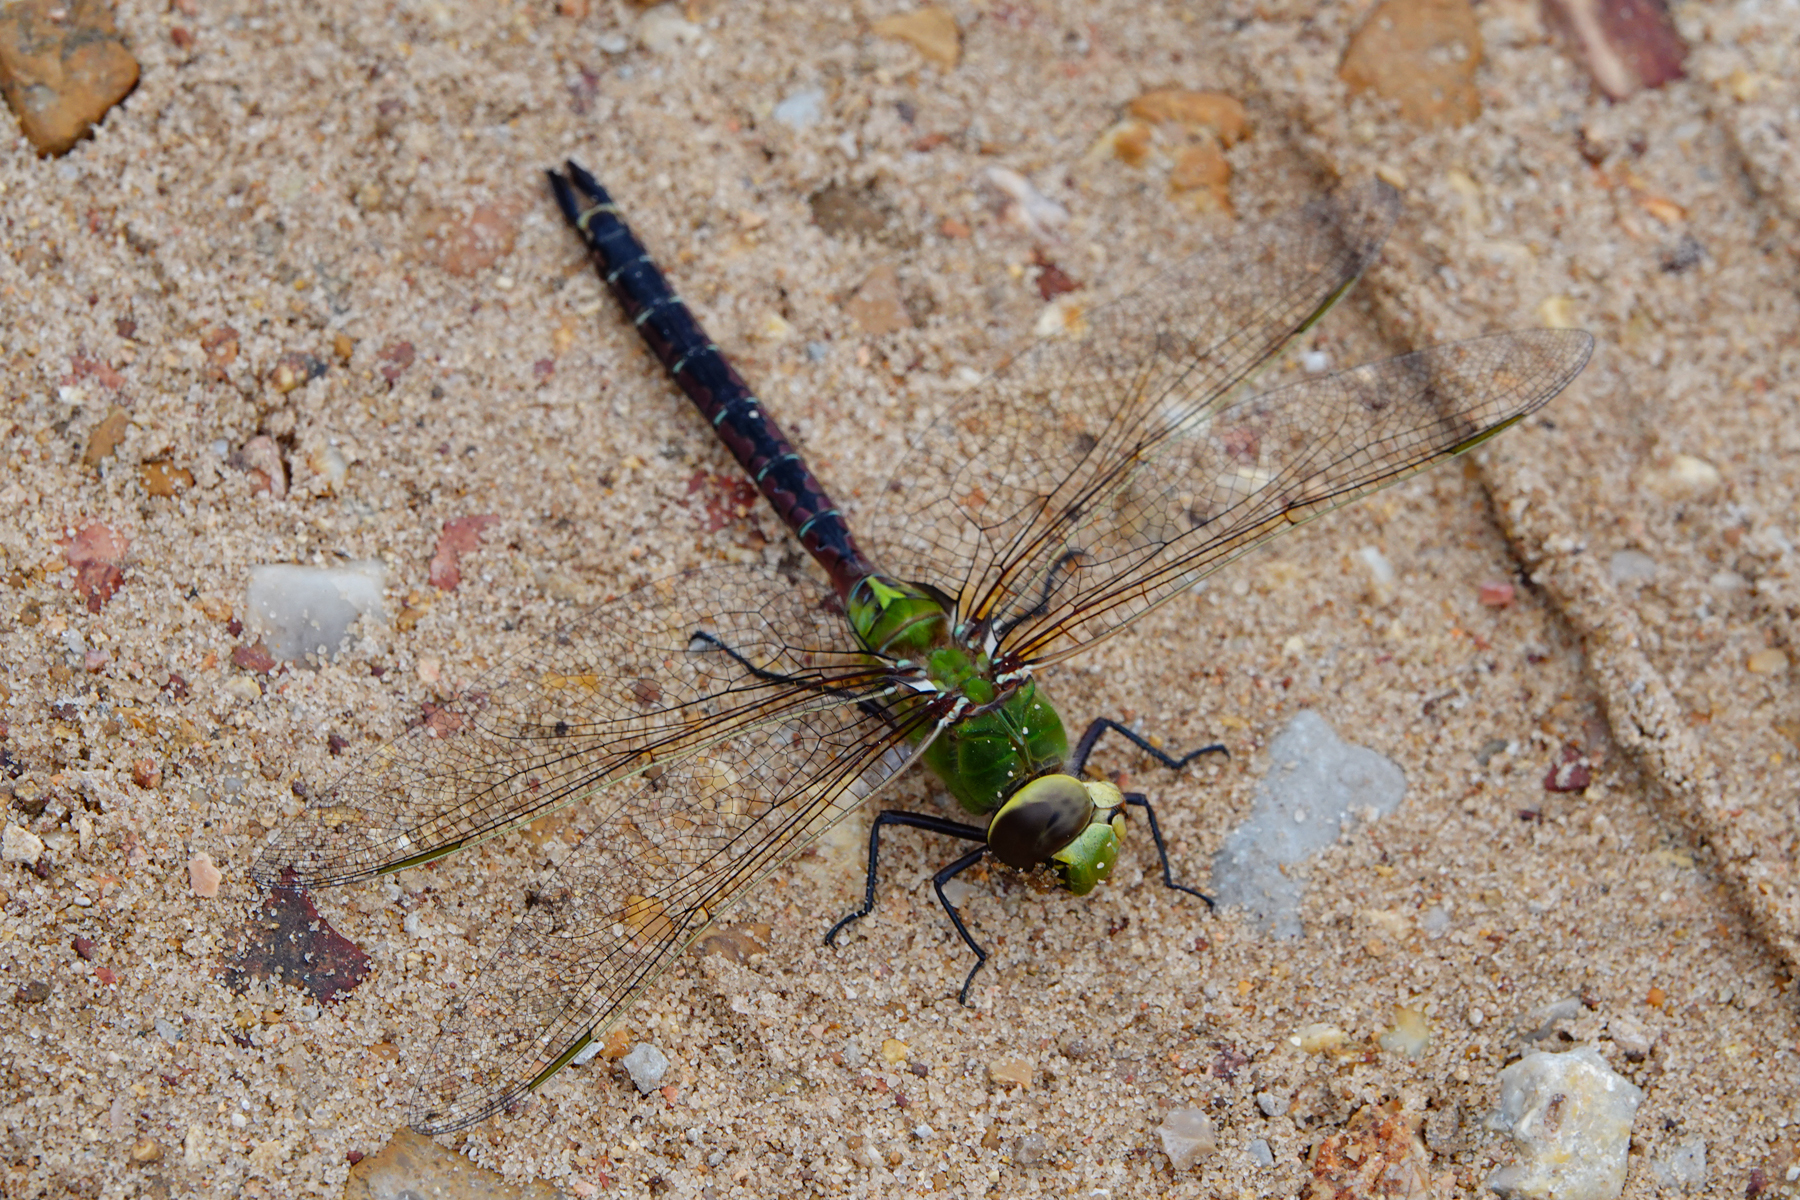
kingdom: Animalia
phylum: Arthropoda
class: Insecta
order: Odonata
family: Aeshnidae
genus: Anax
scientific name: Anax junius
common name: Common green darner
